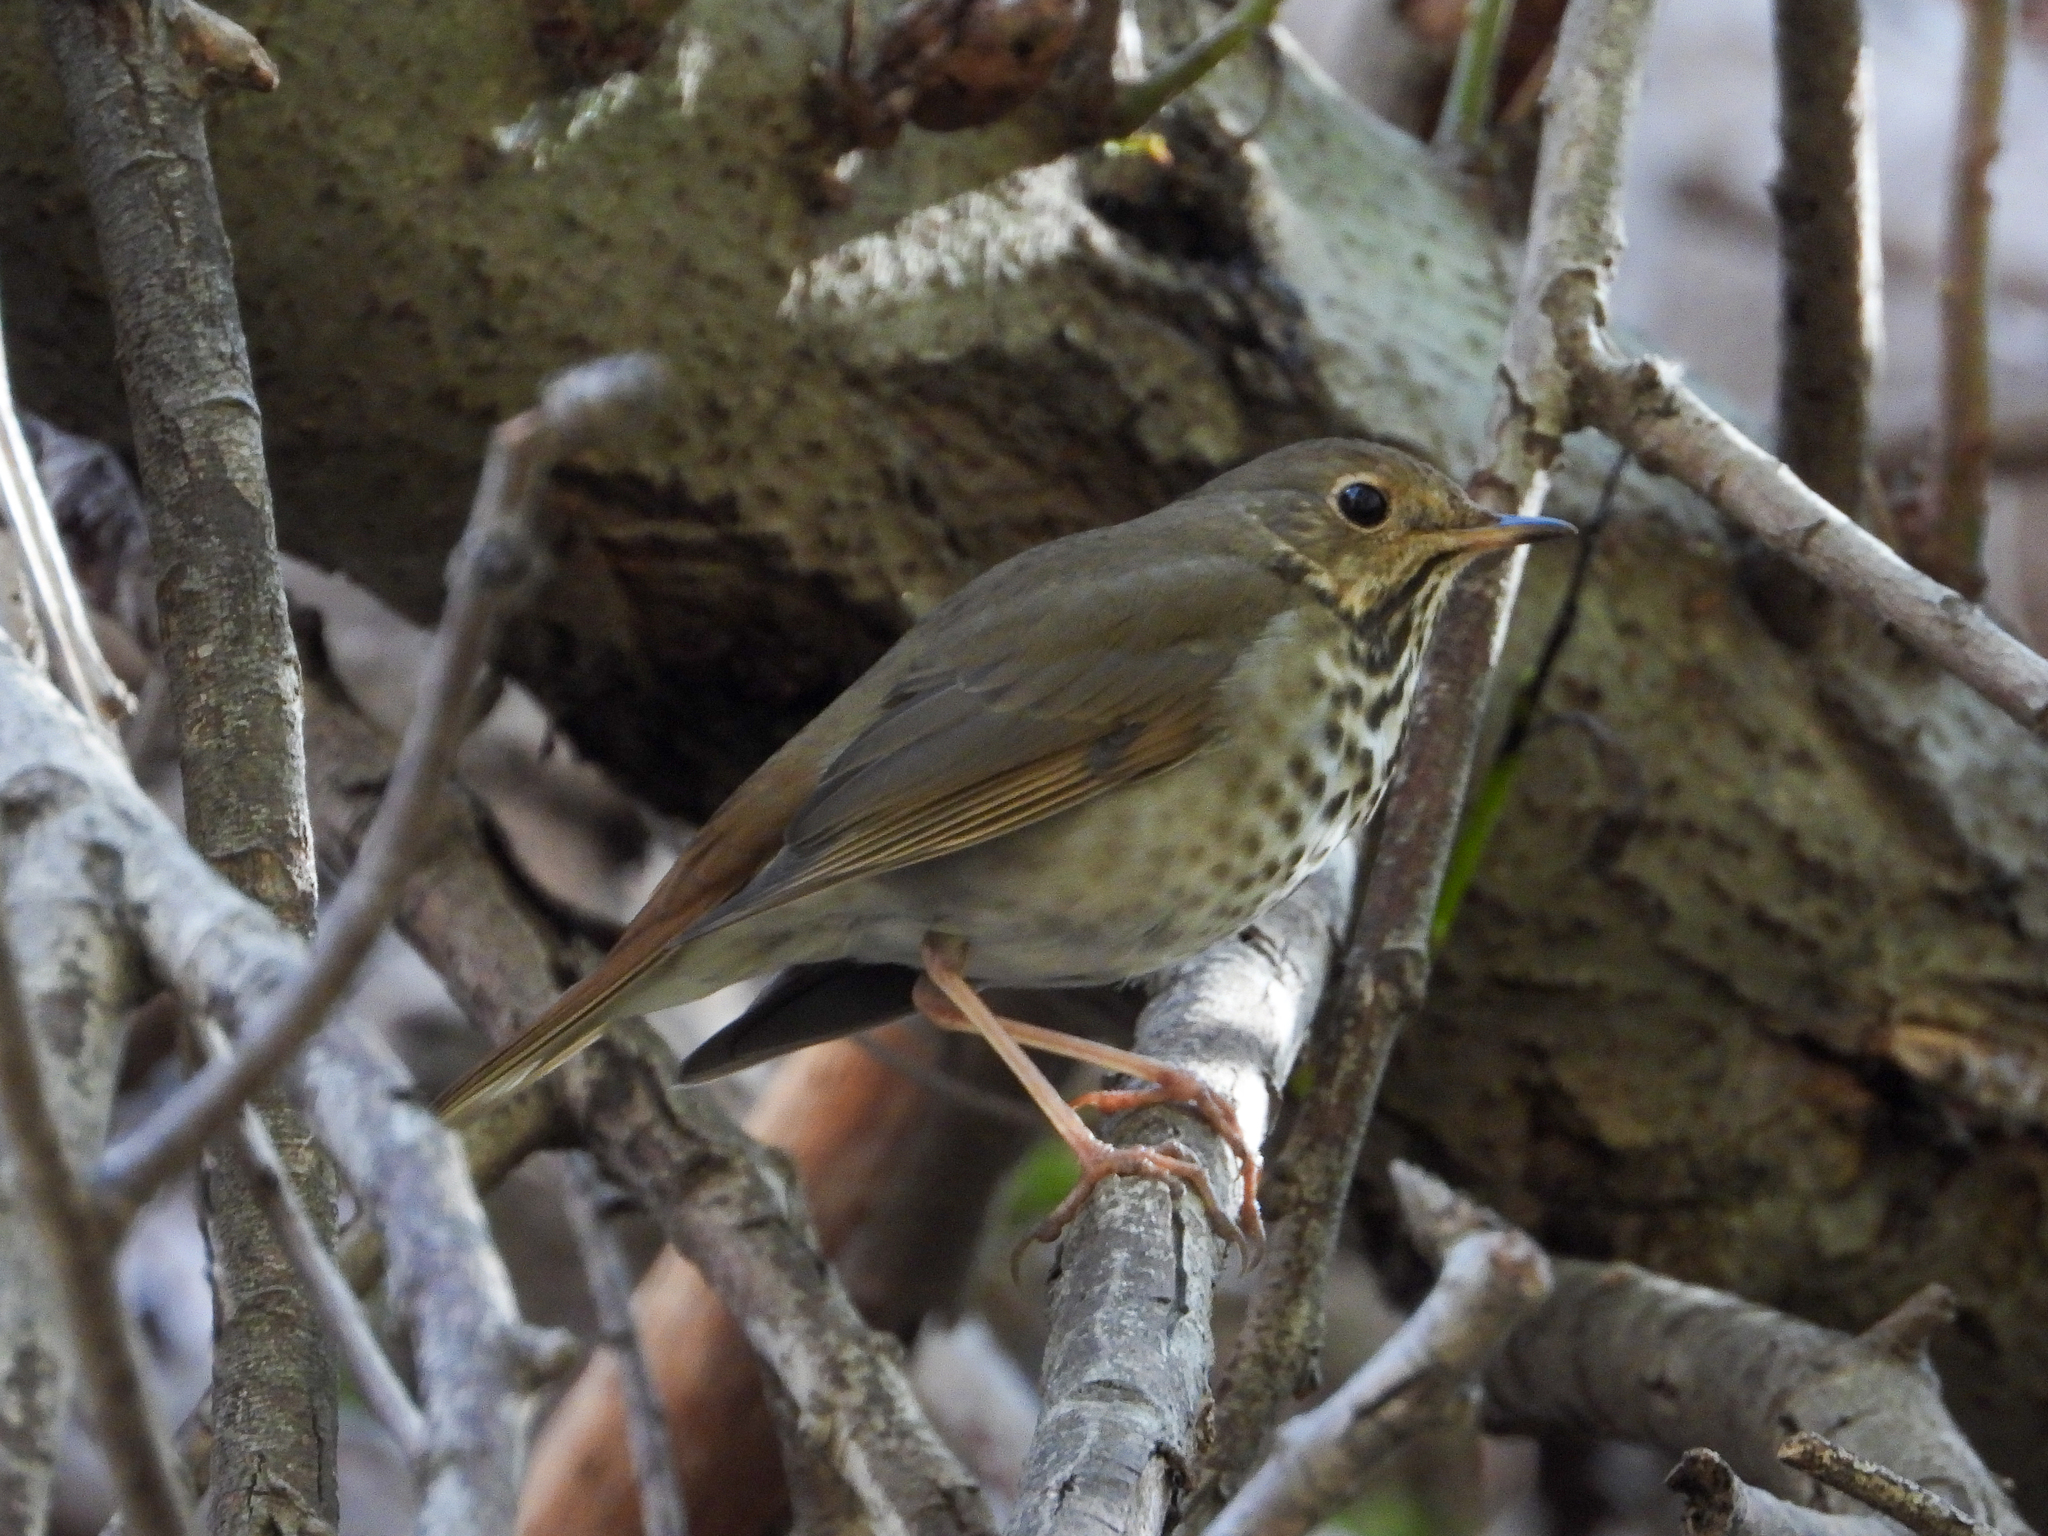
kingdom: Animalia
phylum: Chordata
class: Aves
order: Passeriformes
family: Turdidae
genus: Catharus
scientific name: Catharus guttatus
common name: Hermit thrush
